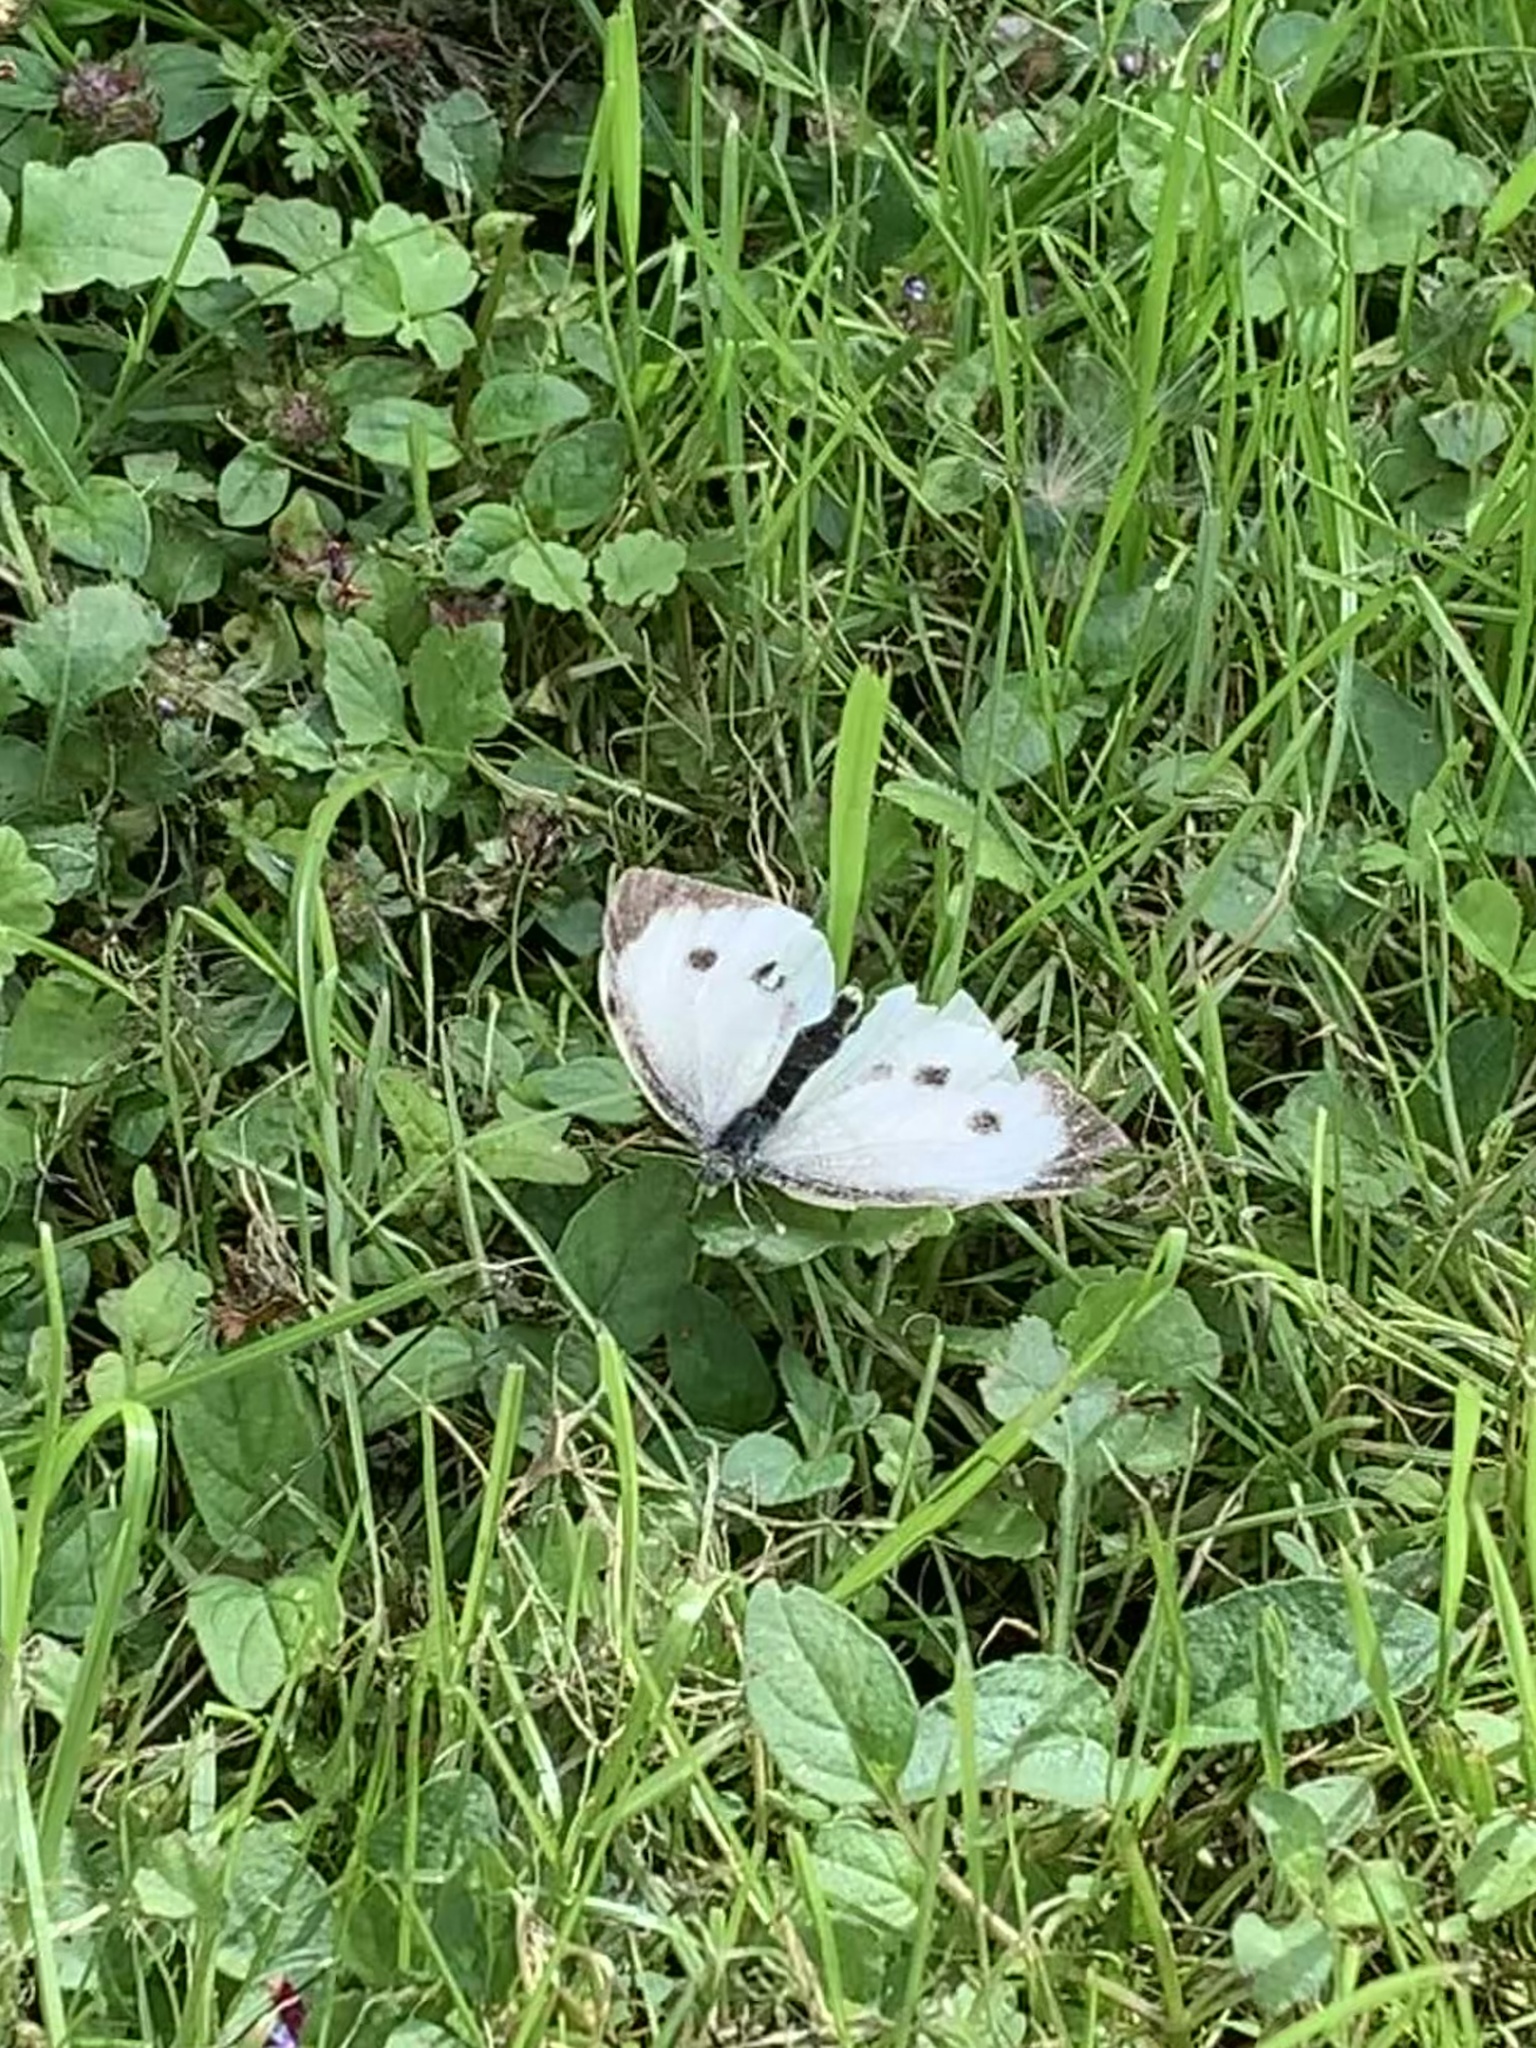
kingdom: Animalia
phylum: Arthropoda
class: Insecta
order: Lepidoptera
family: Pieridae
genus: Pieris
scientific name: Pieris brassicae
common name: Large white
